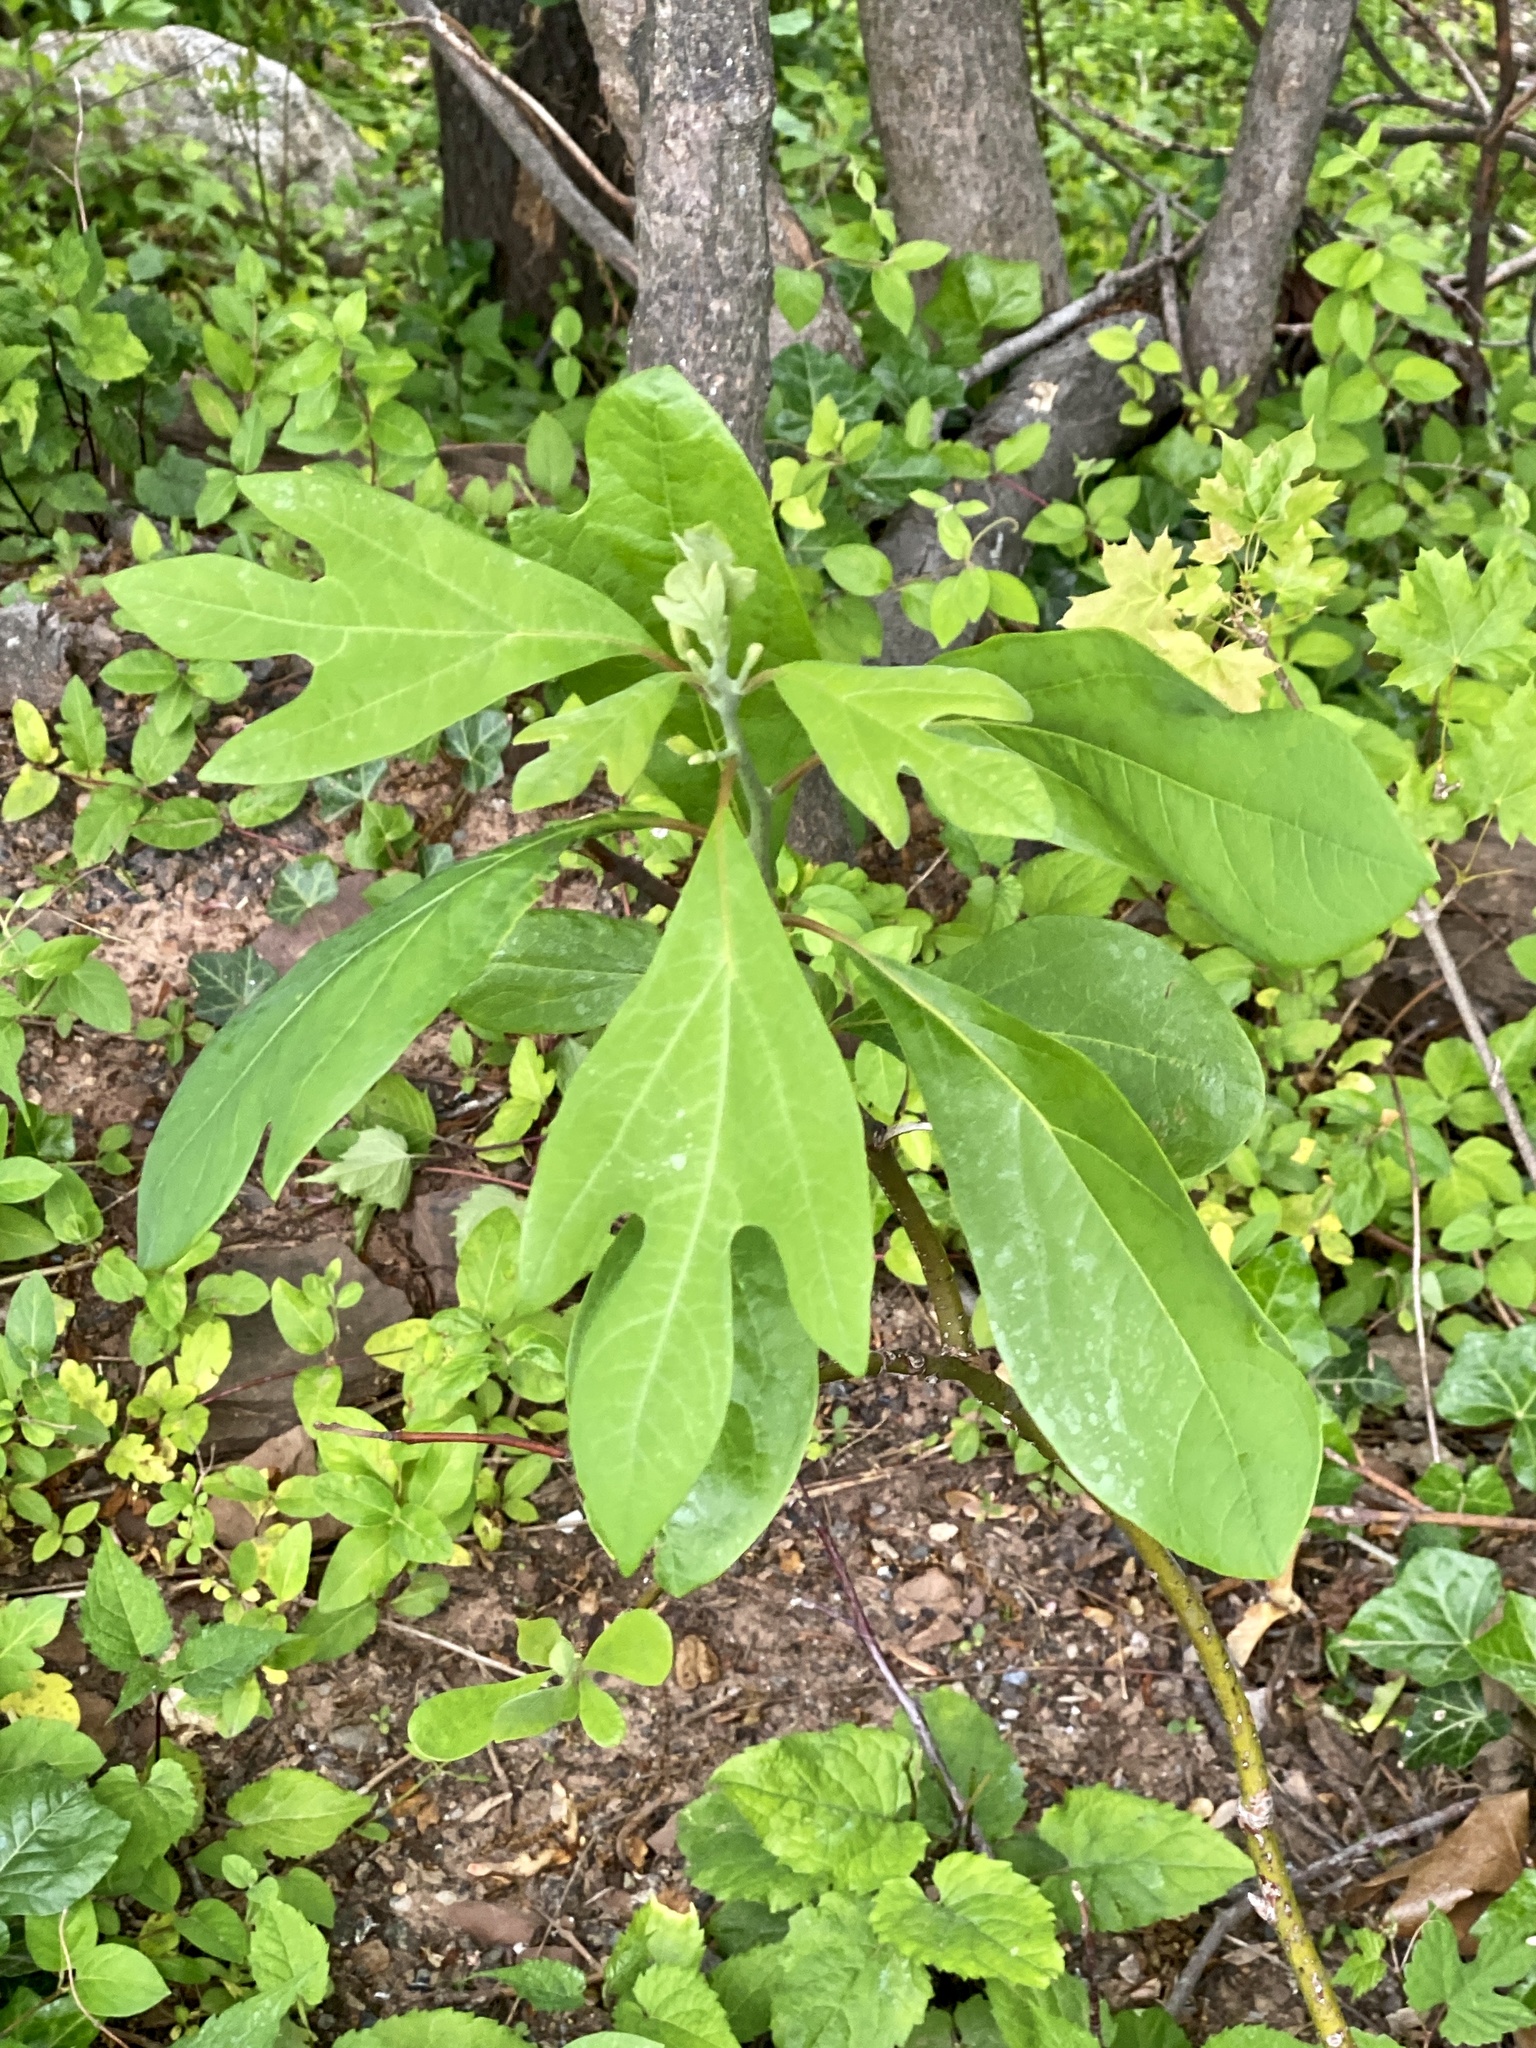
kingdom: Plantae
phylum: Tracheophyta
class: Magnoliopsida
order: Laurales
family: Lauraceae
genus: Sassafras
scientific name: Sassafras albidum
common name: Sassafras
